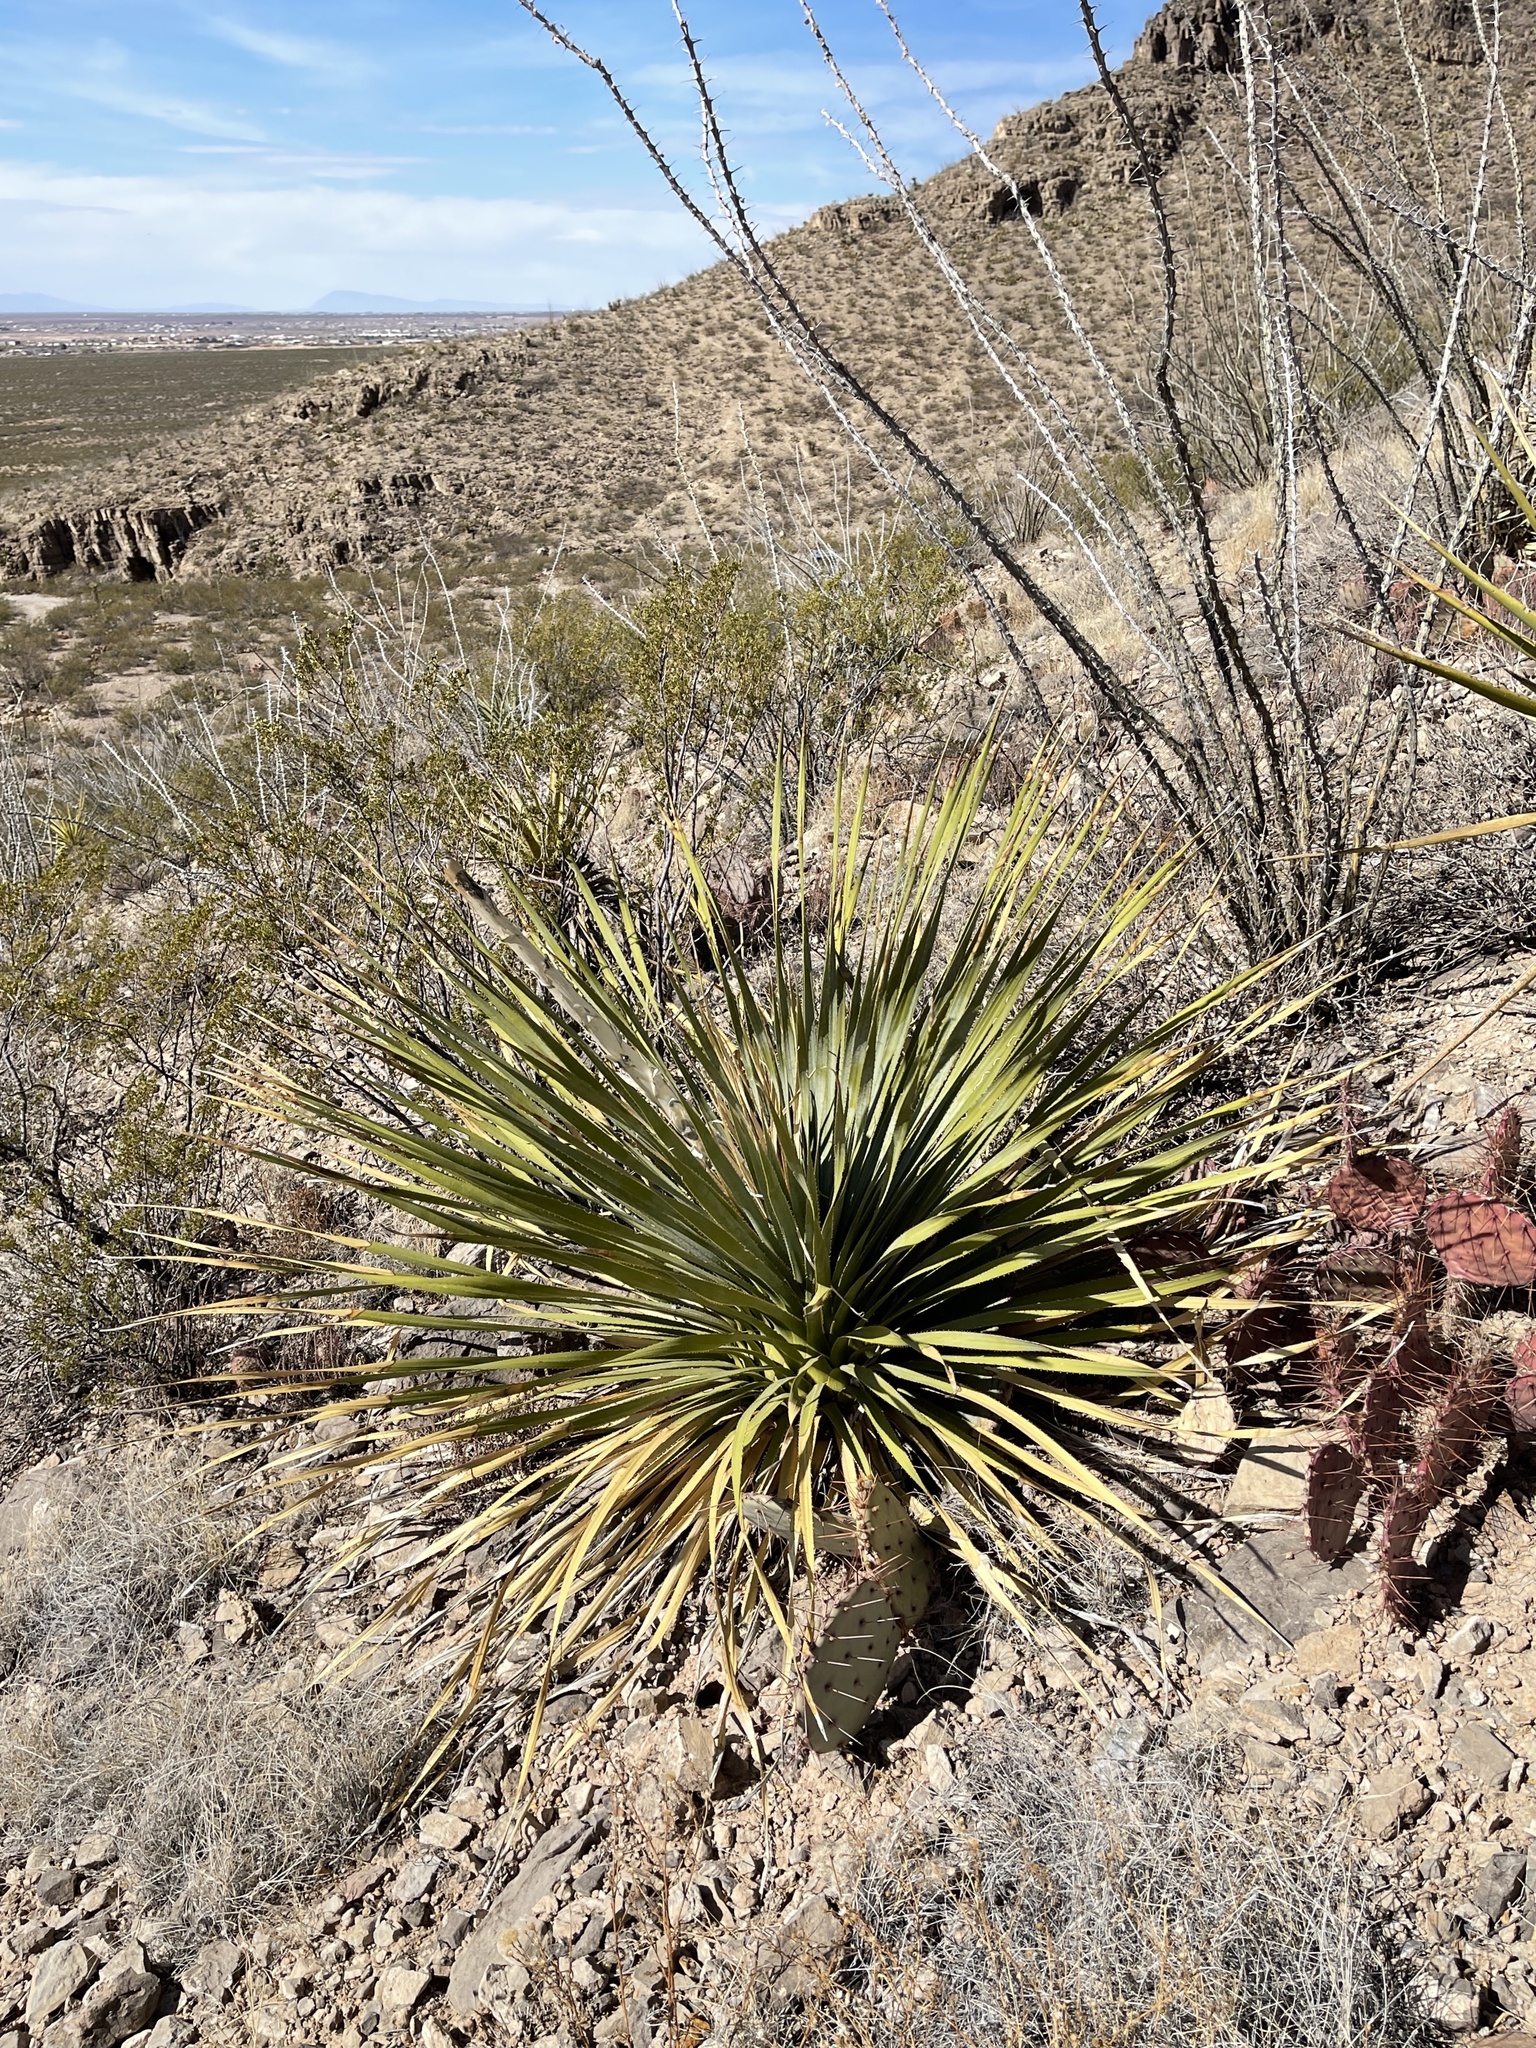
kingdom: Plantae
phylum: Tracheophyta
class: Liliopsida
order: Asparagales
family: Asparagaceae
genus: Dasylirion
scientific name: Dasylirion wheeleri
